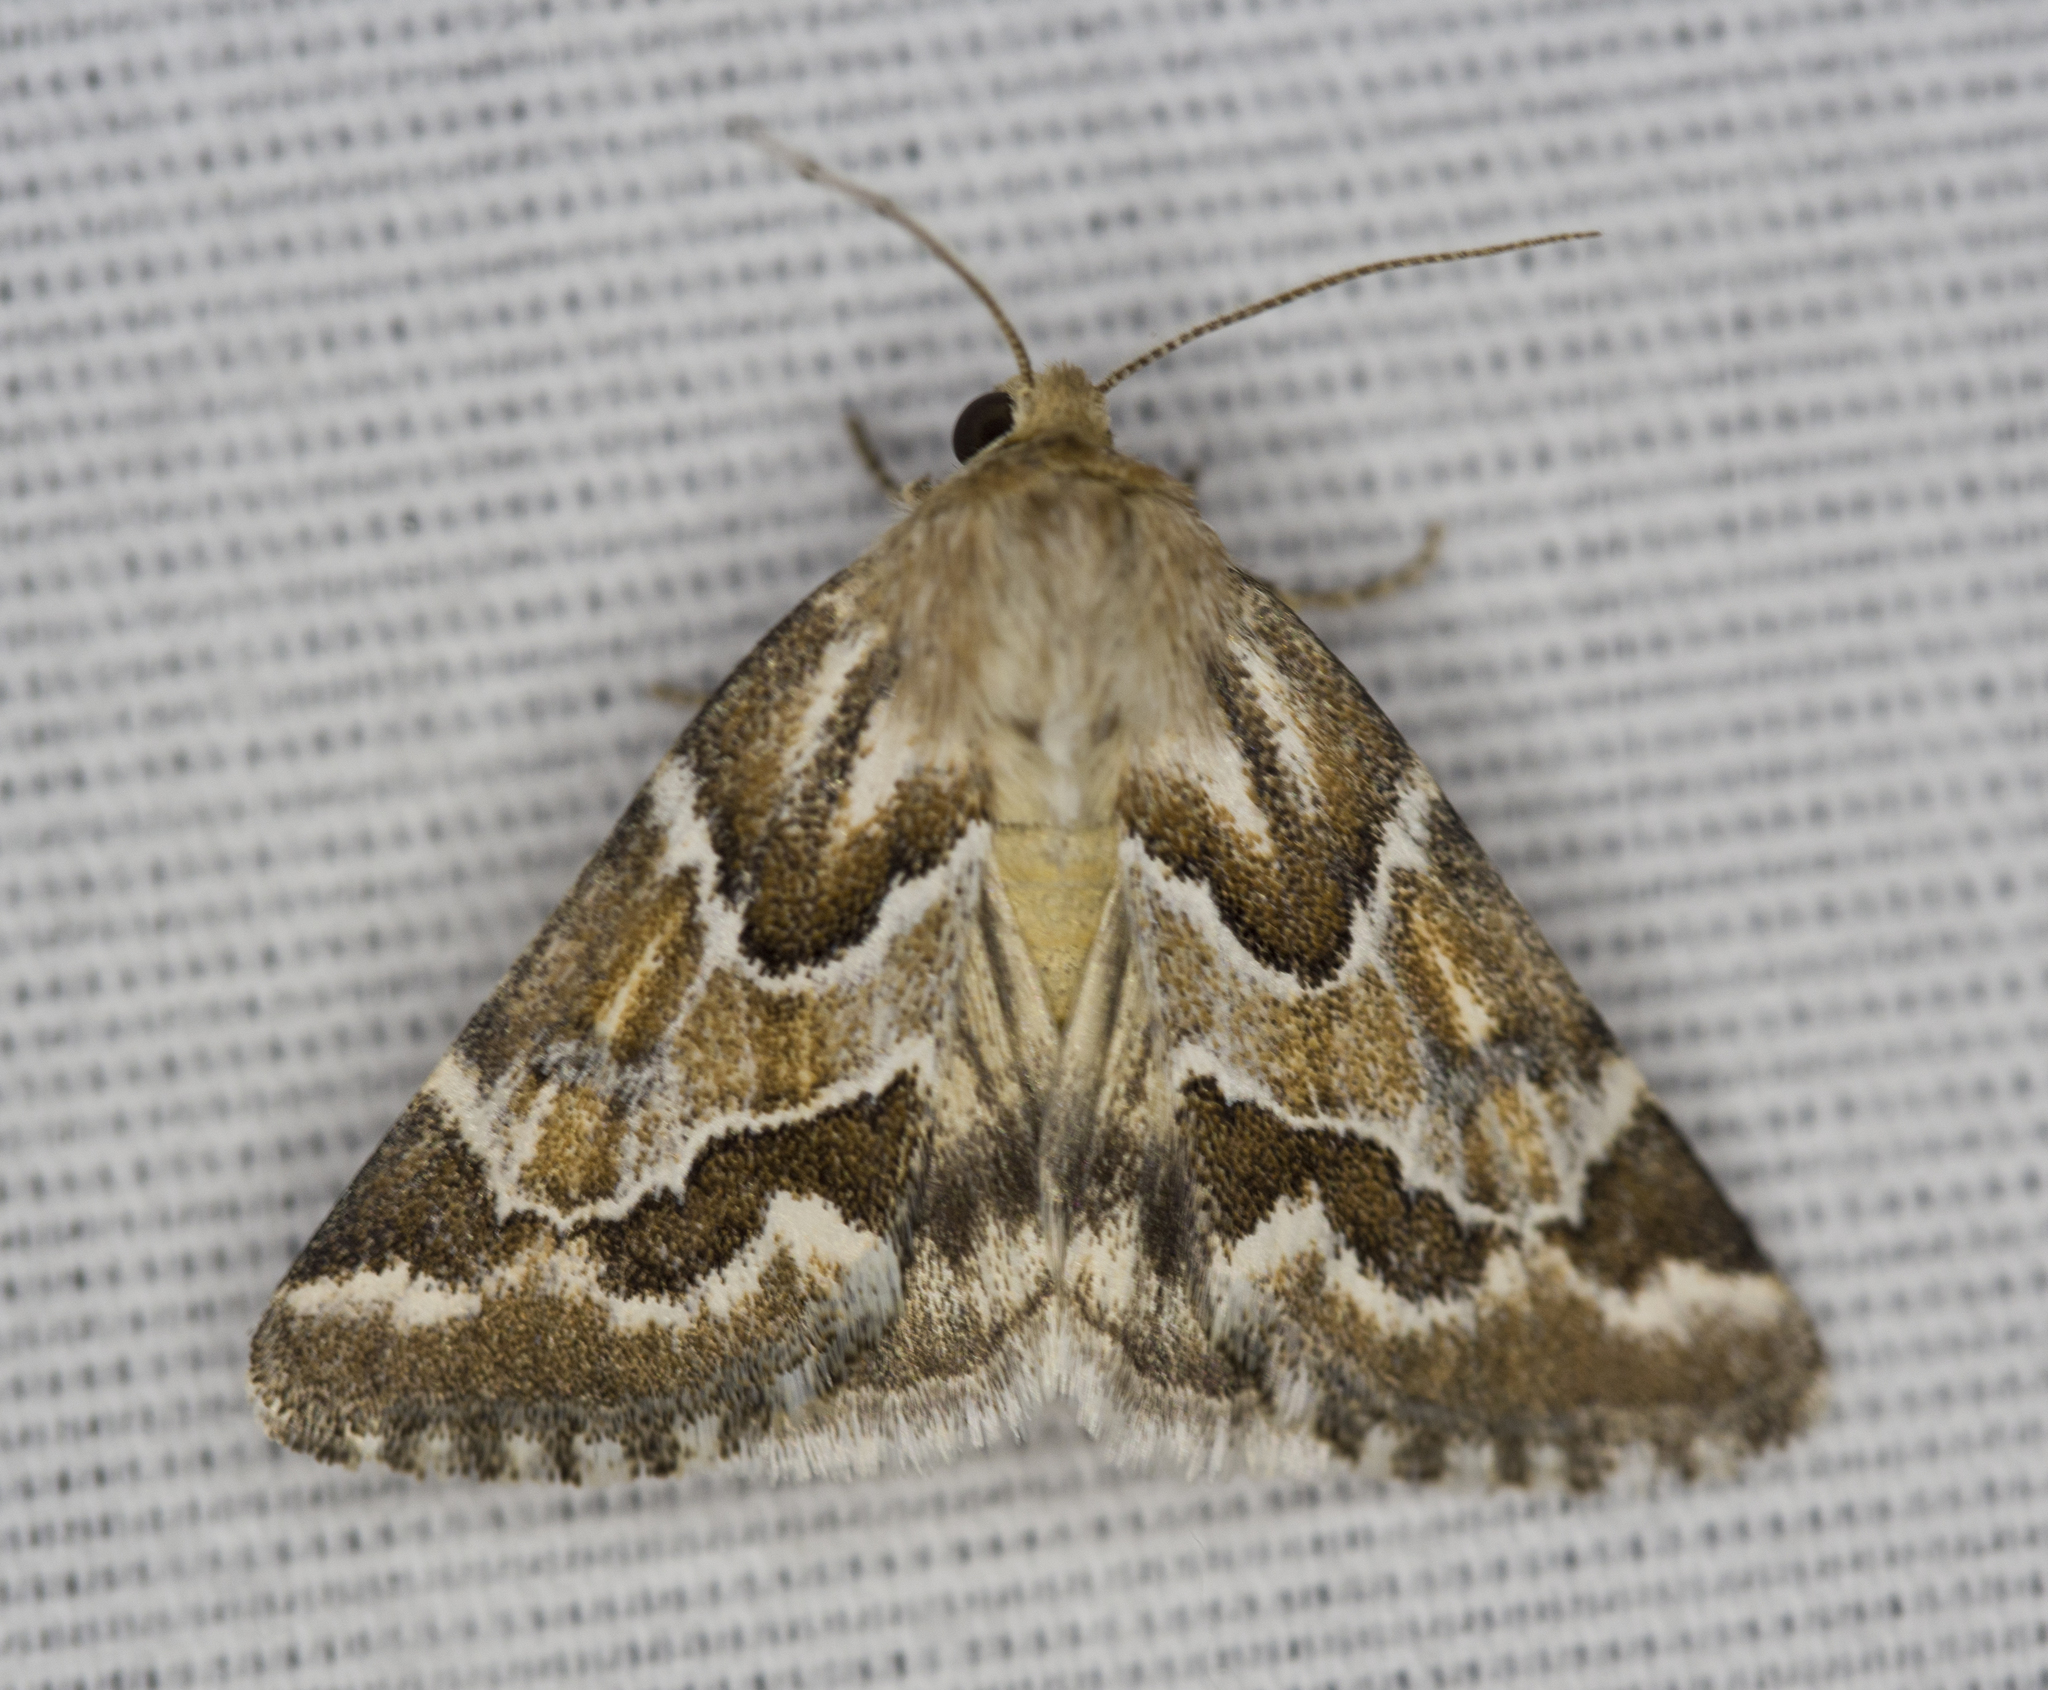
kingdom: Animalia
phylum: Arthropoda
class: Insecta
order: Lepidoptera
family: Noctuidae
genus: Schinia
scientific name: Schinia acutilinea
